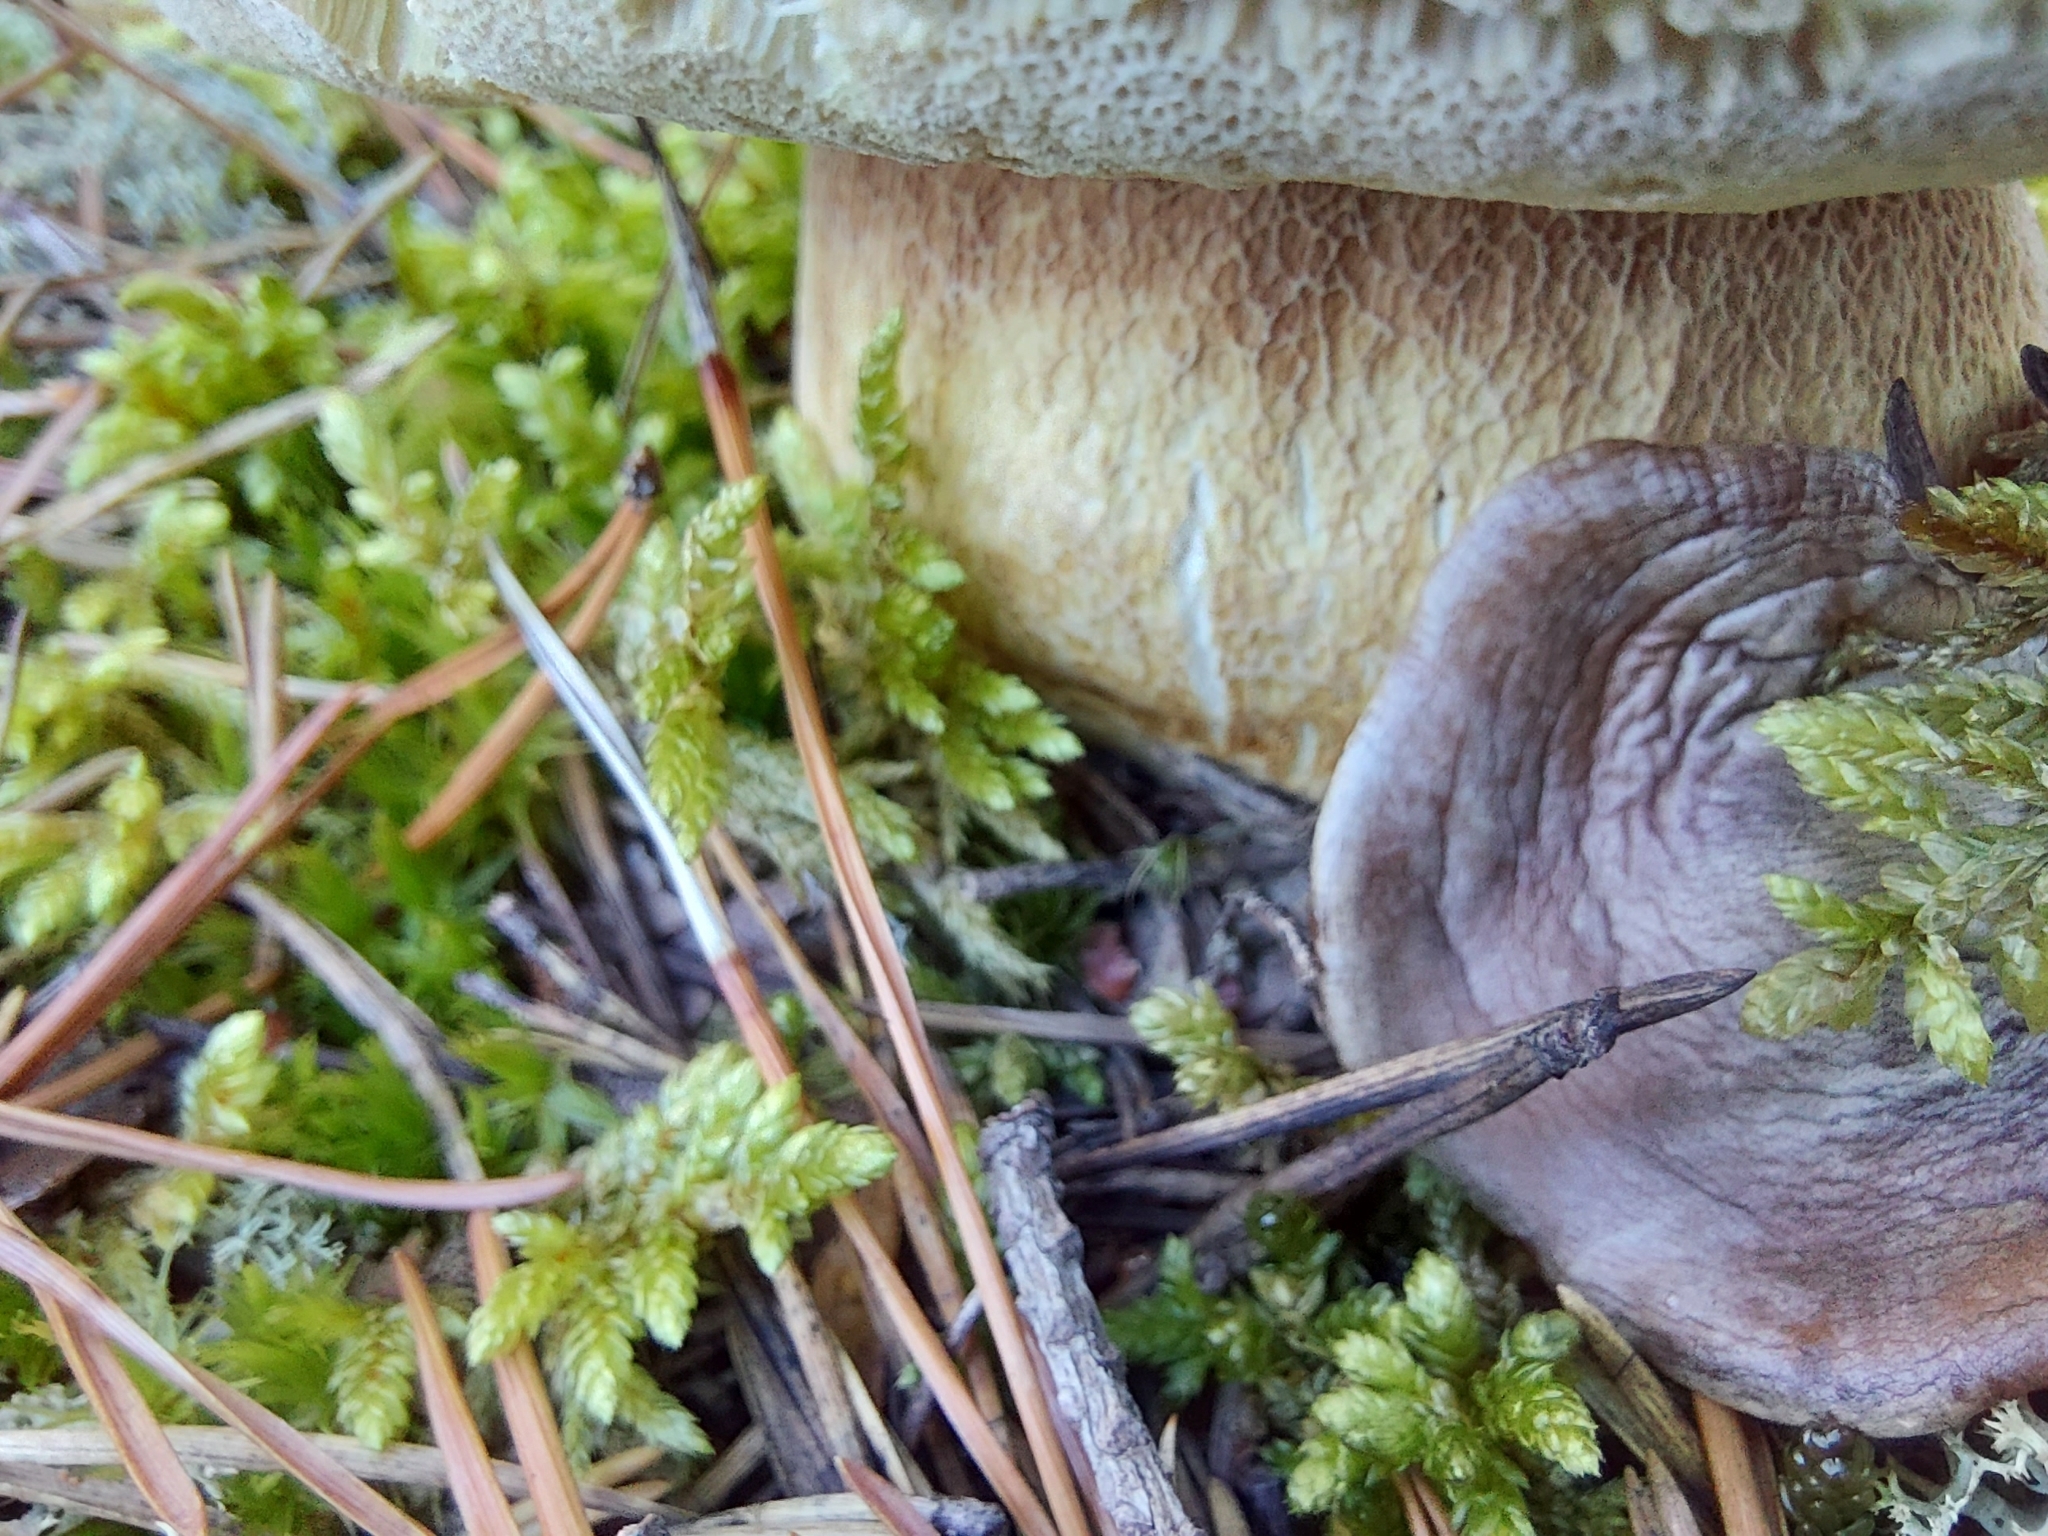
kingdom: Fungi
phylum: Basidiomycota
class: Agaricomycetes
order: Boletales
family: Boletaceae
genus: Boletus
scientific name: Boletus pinophilus
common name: Pine bolete
